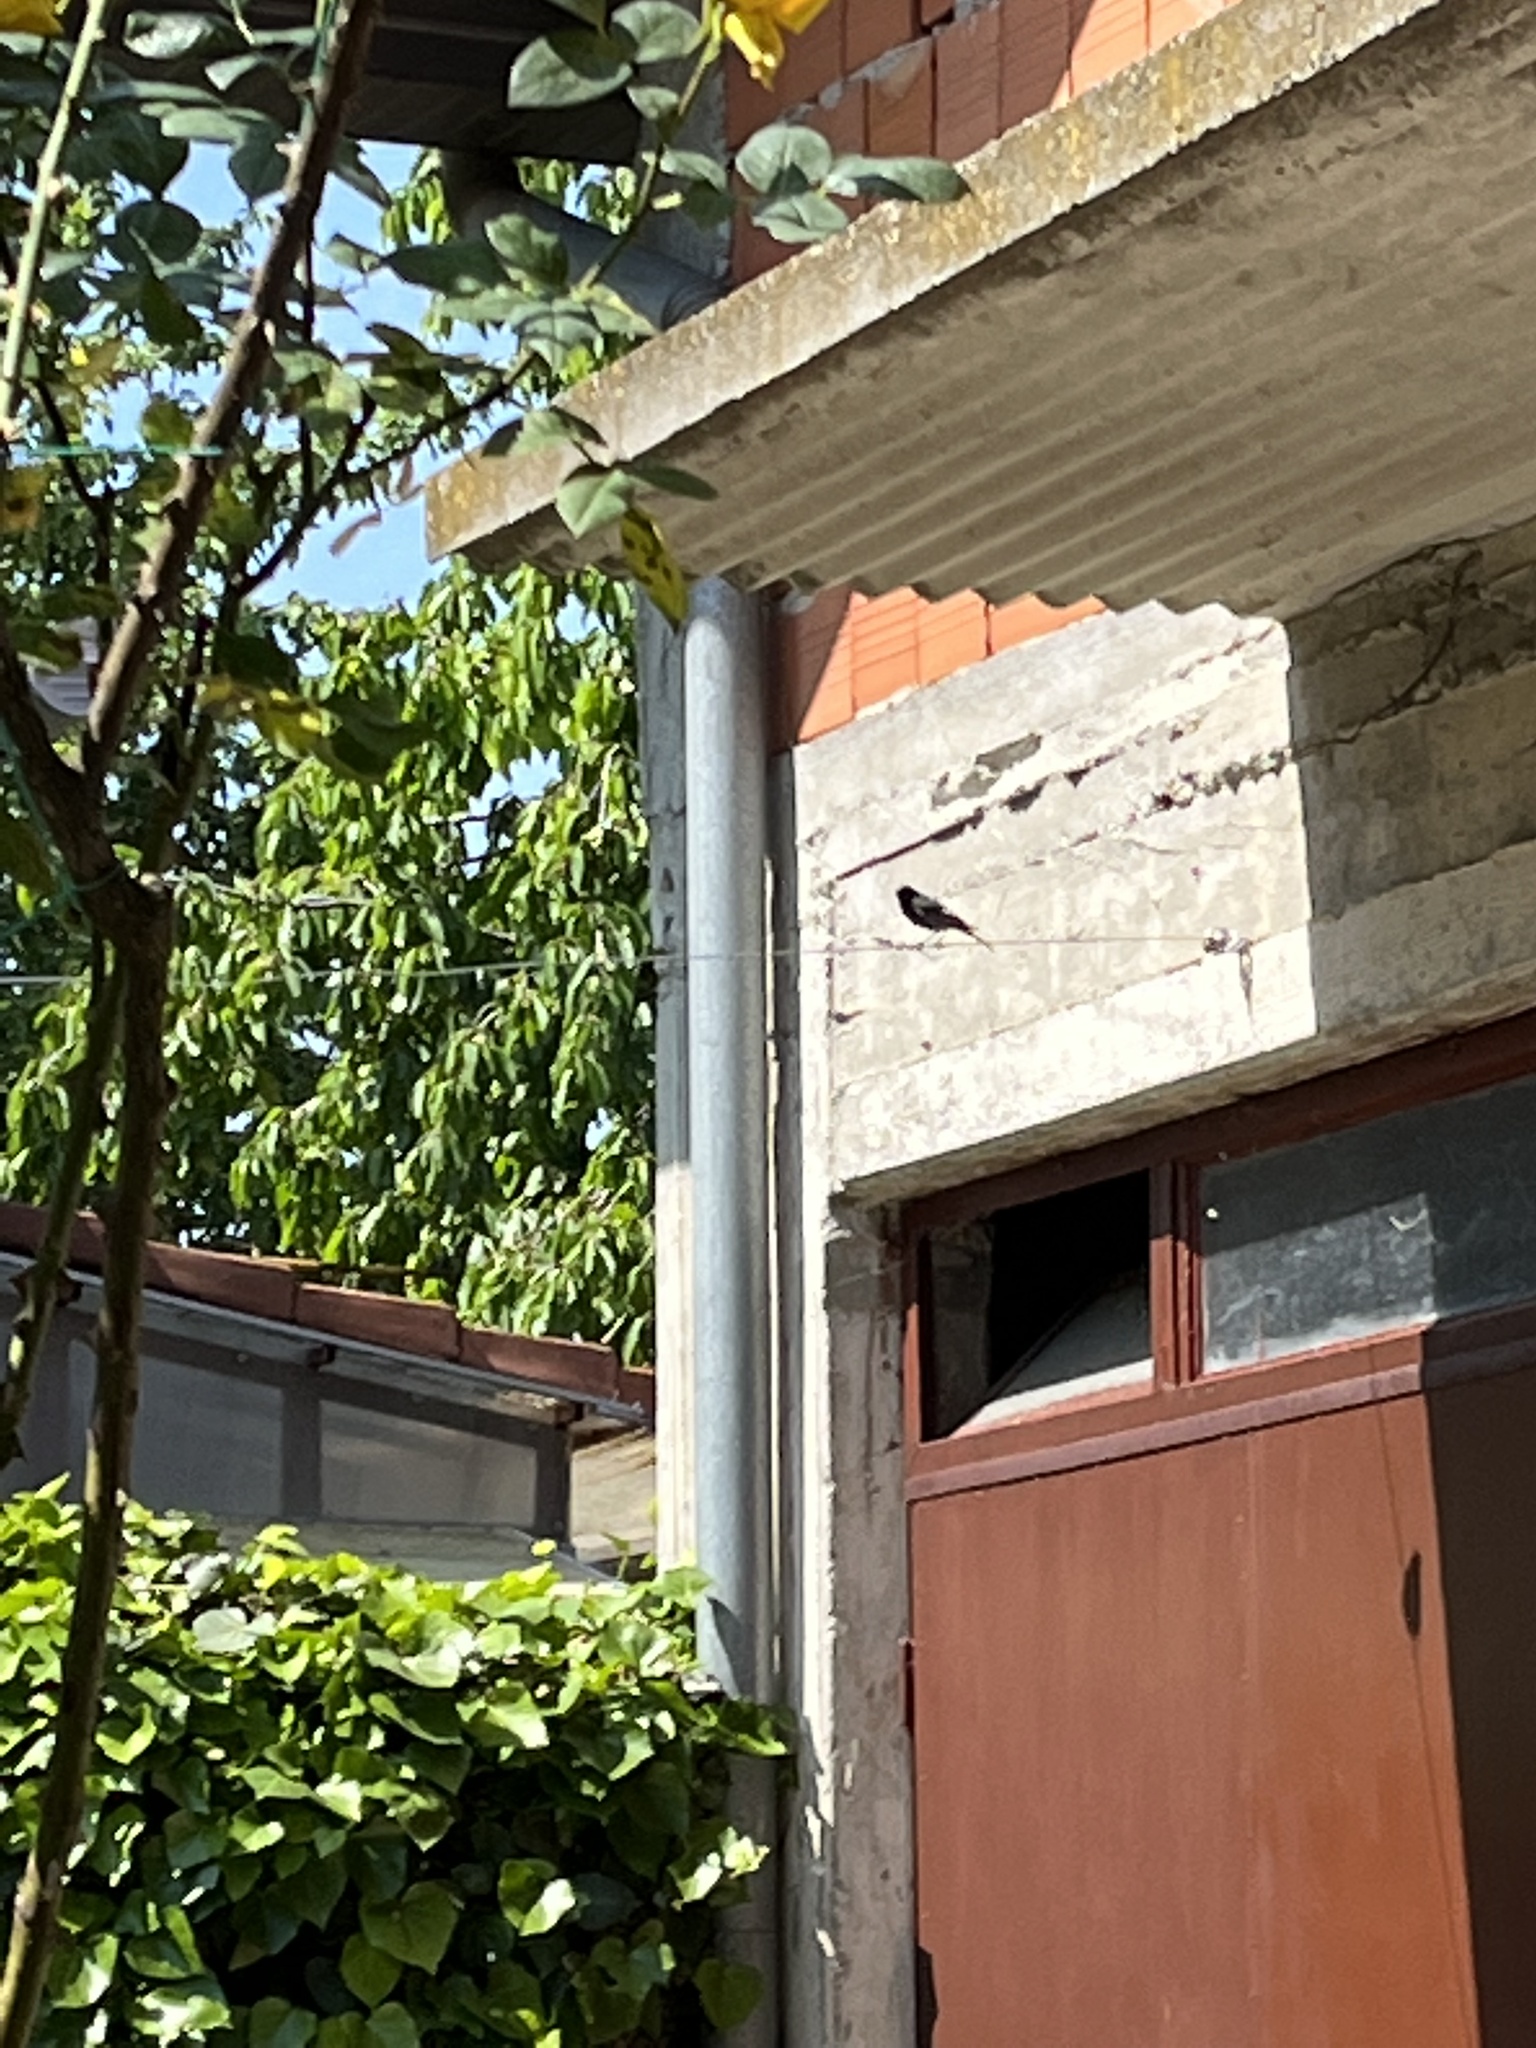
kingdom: Animalia
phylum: Chordata
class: Aves
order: Passeriformes
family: Muscicapidae
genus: Phoenicurus
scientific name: Phoenicurus ochruros
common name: Black redstart
